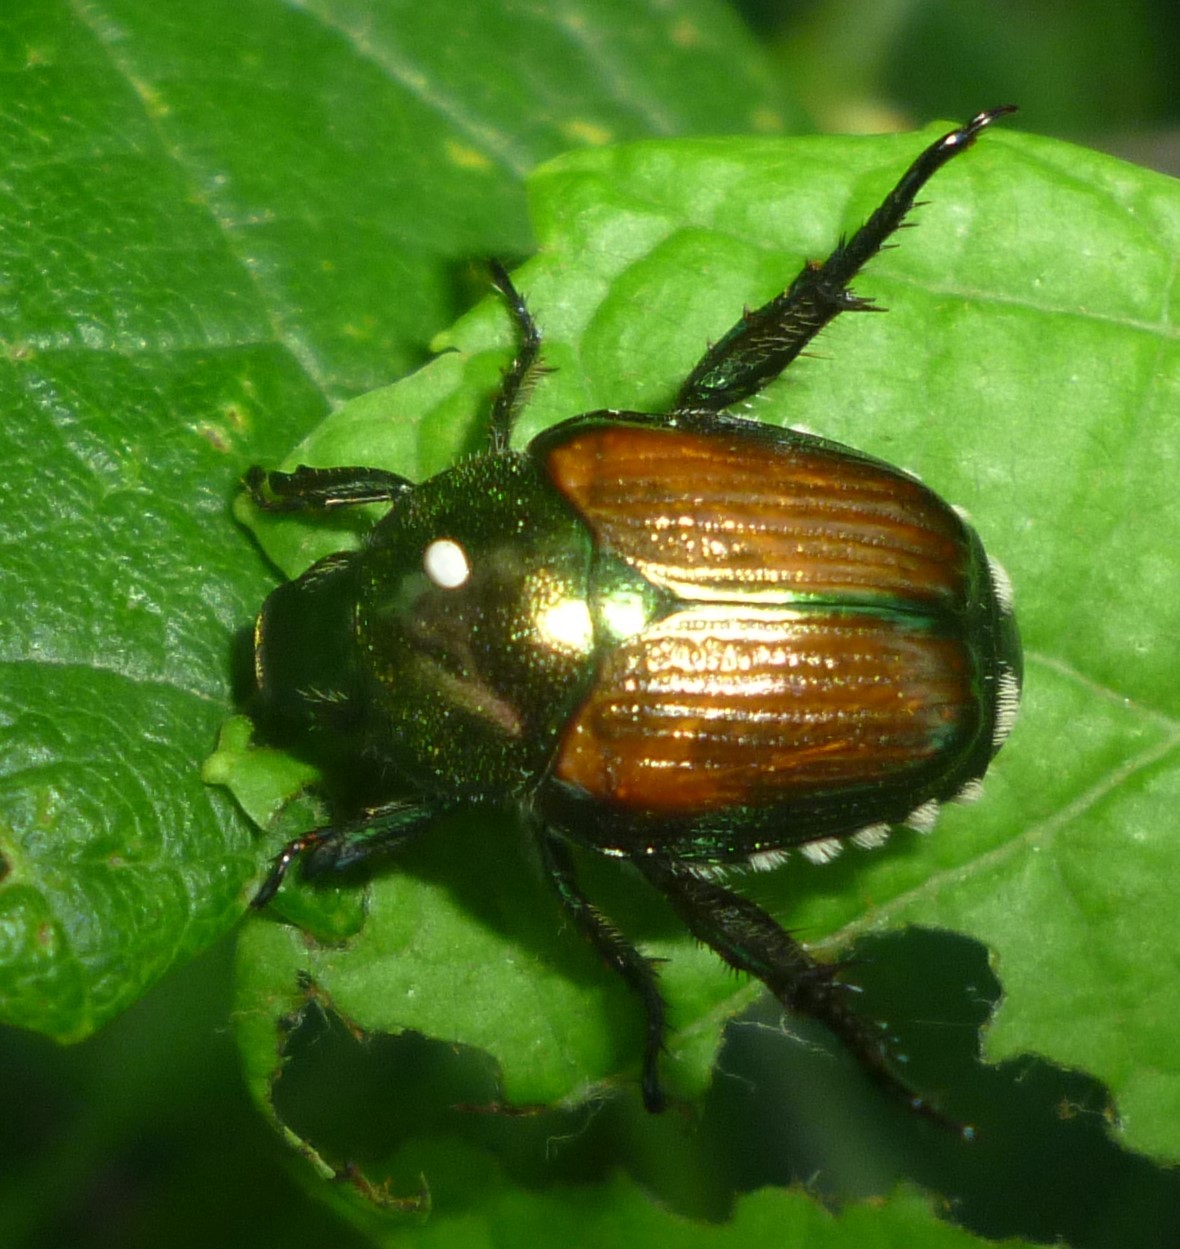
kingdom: Animalia
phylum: Arthropoda
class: Insecta
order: Coleoptera
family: Scarabaeidae
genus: Popillia
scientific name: Popillia japonica
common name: Japanese beetle
